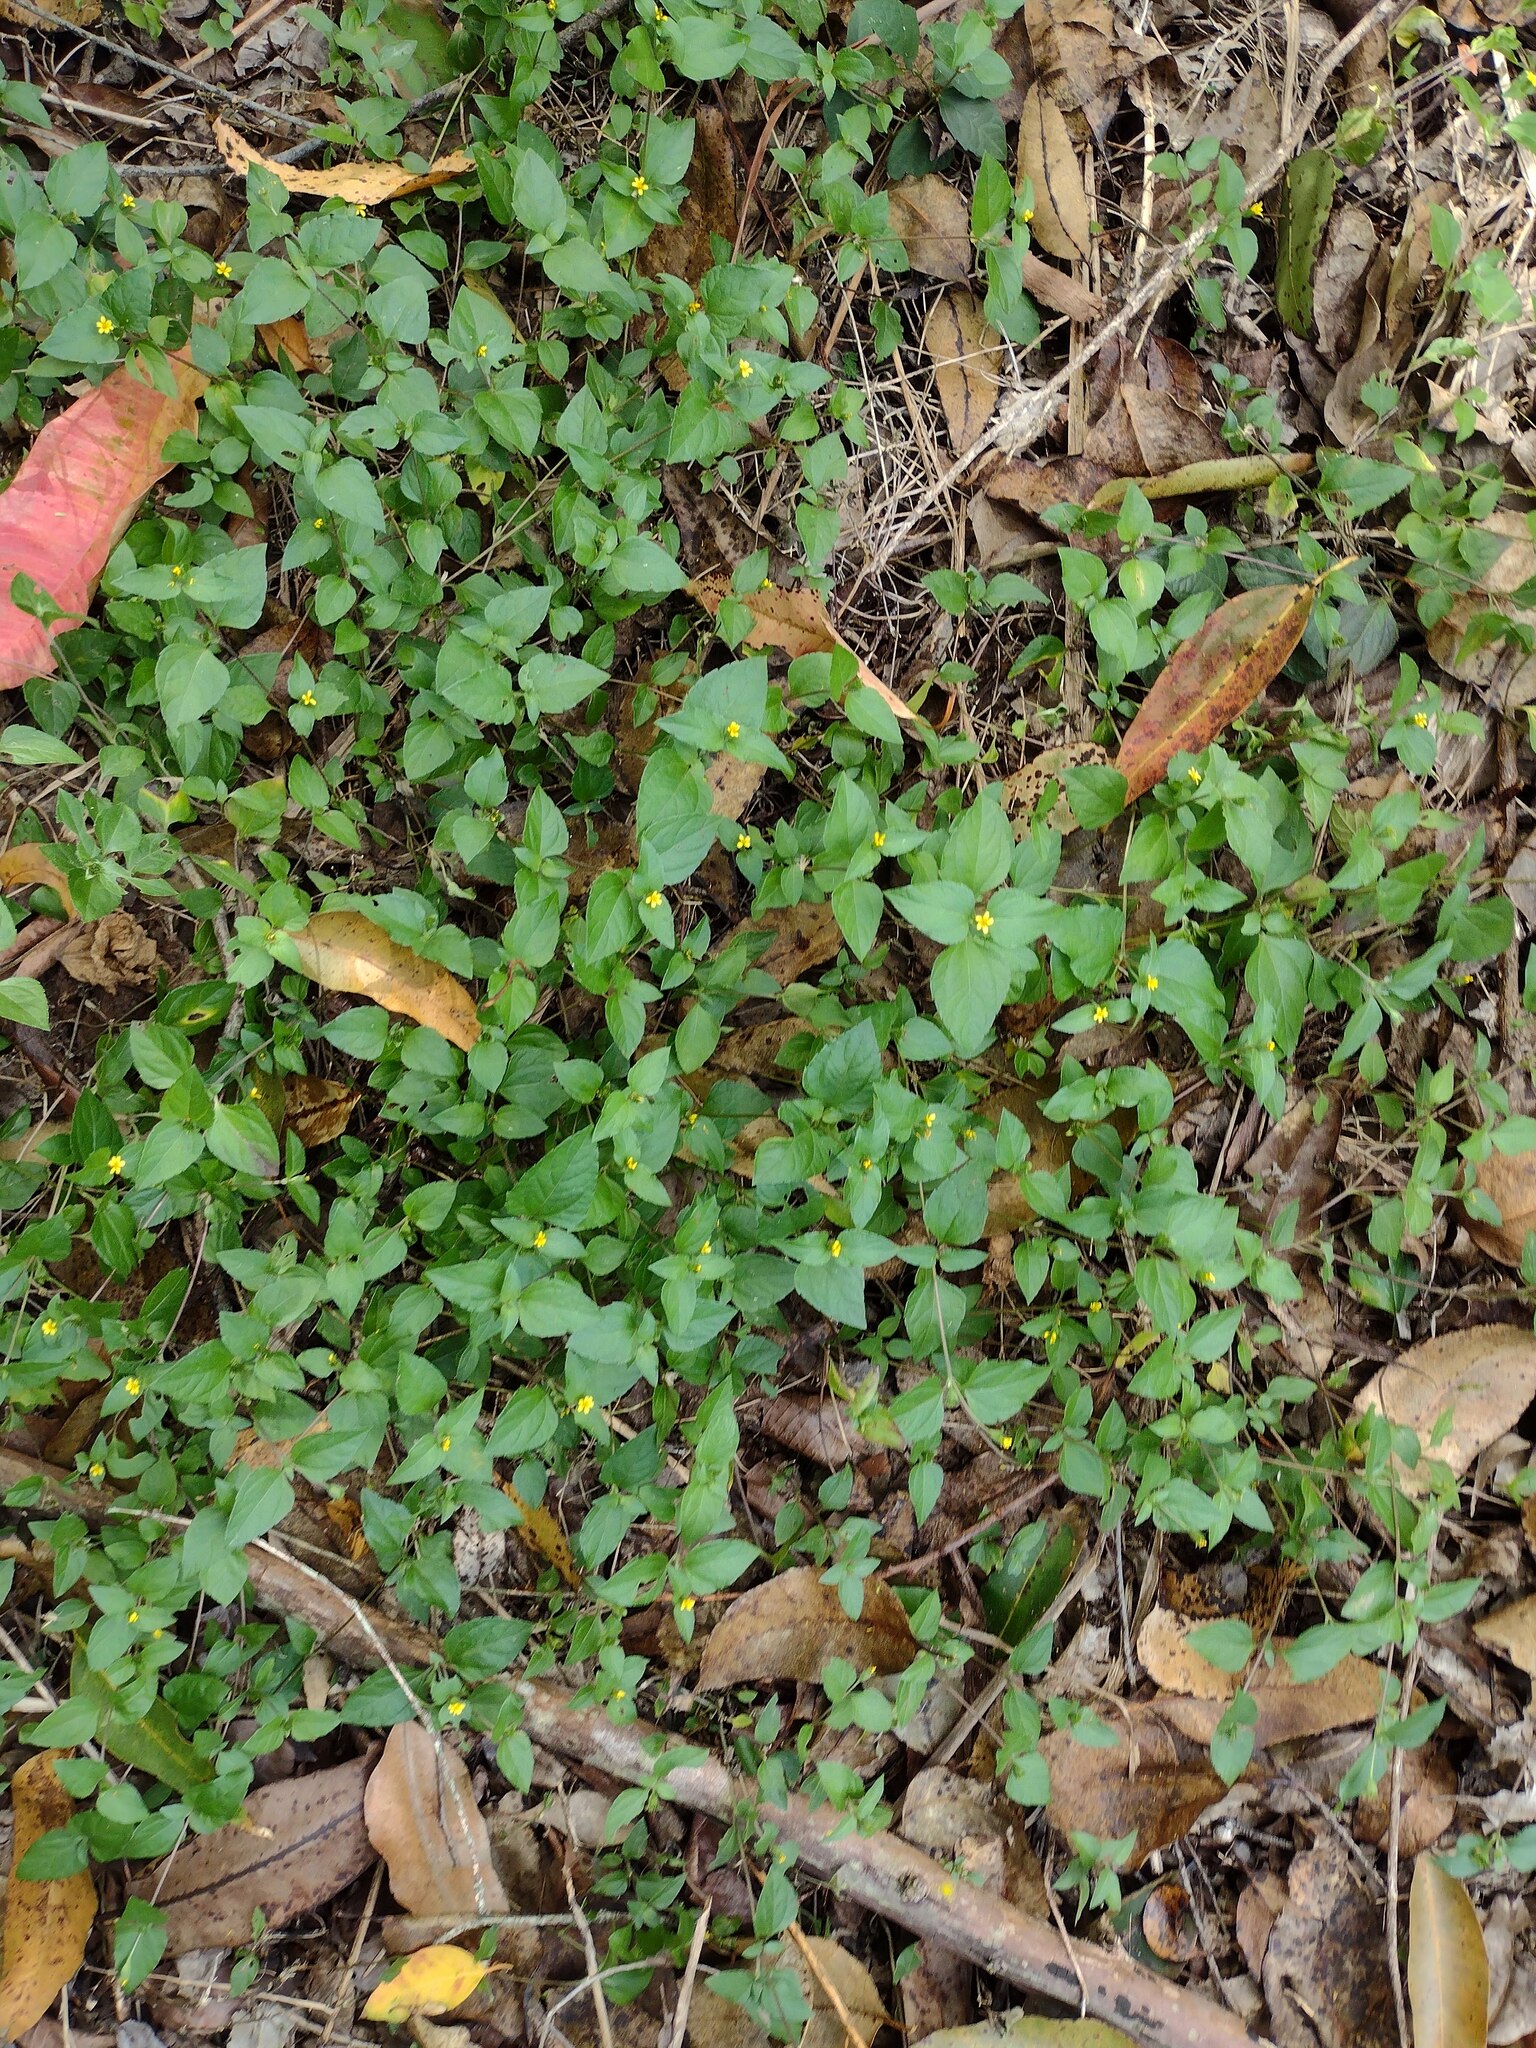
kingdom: Plantae
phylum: Tracheophyta
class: Magnoliopsida
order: Asterales
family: Asteraceae
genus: Calyptocarpus
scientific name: Calyptocarpus vialis
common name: Straggler daisy
